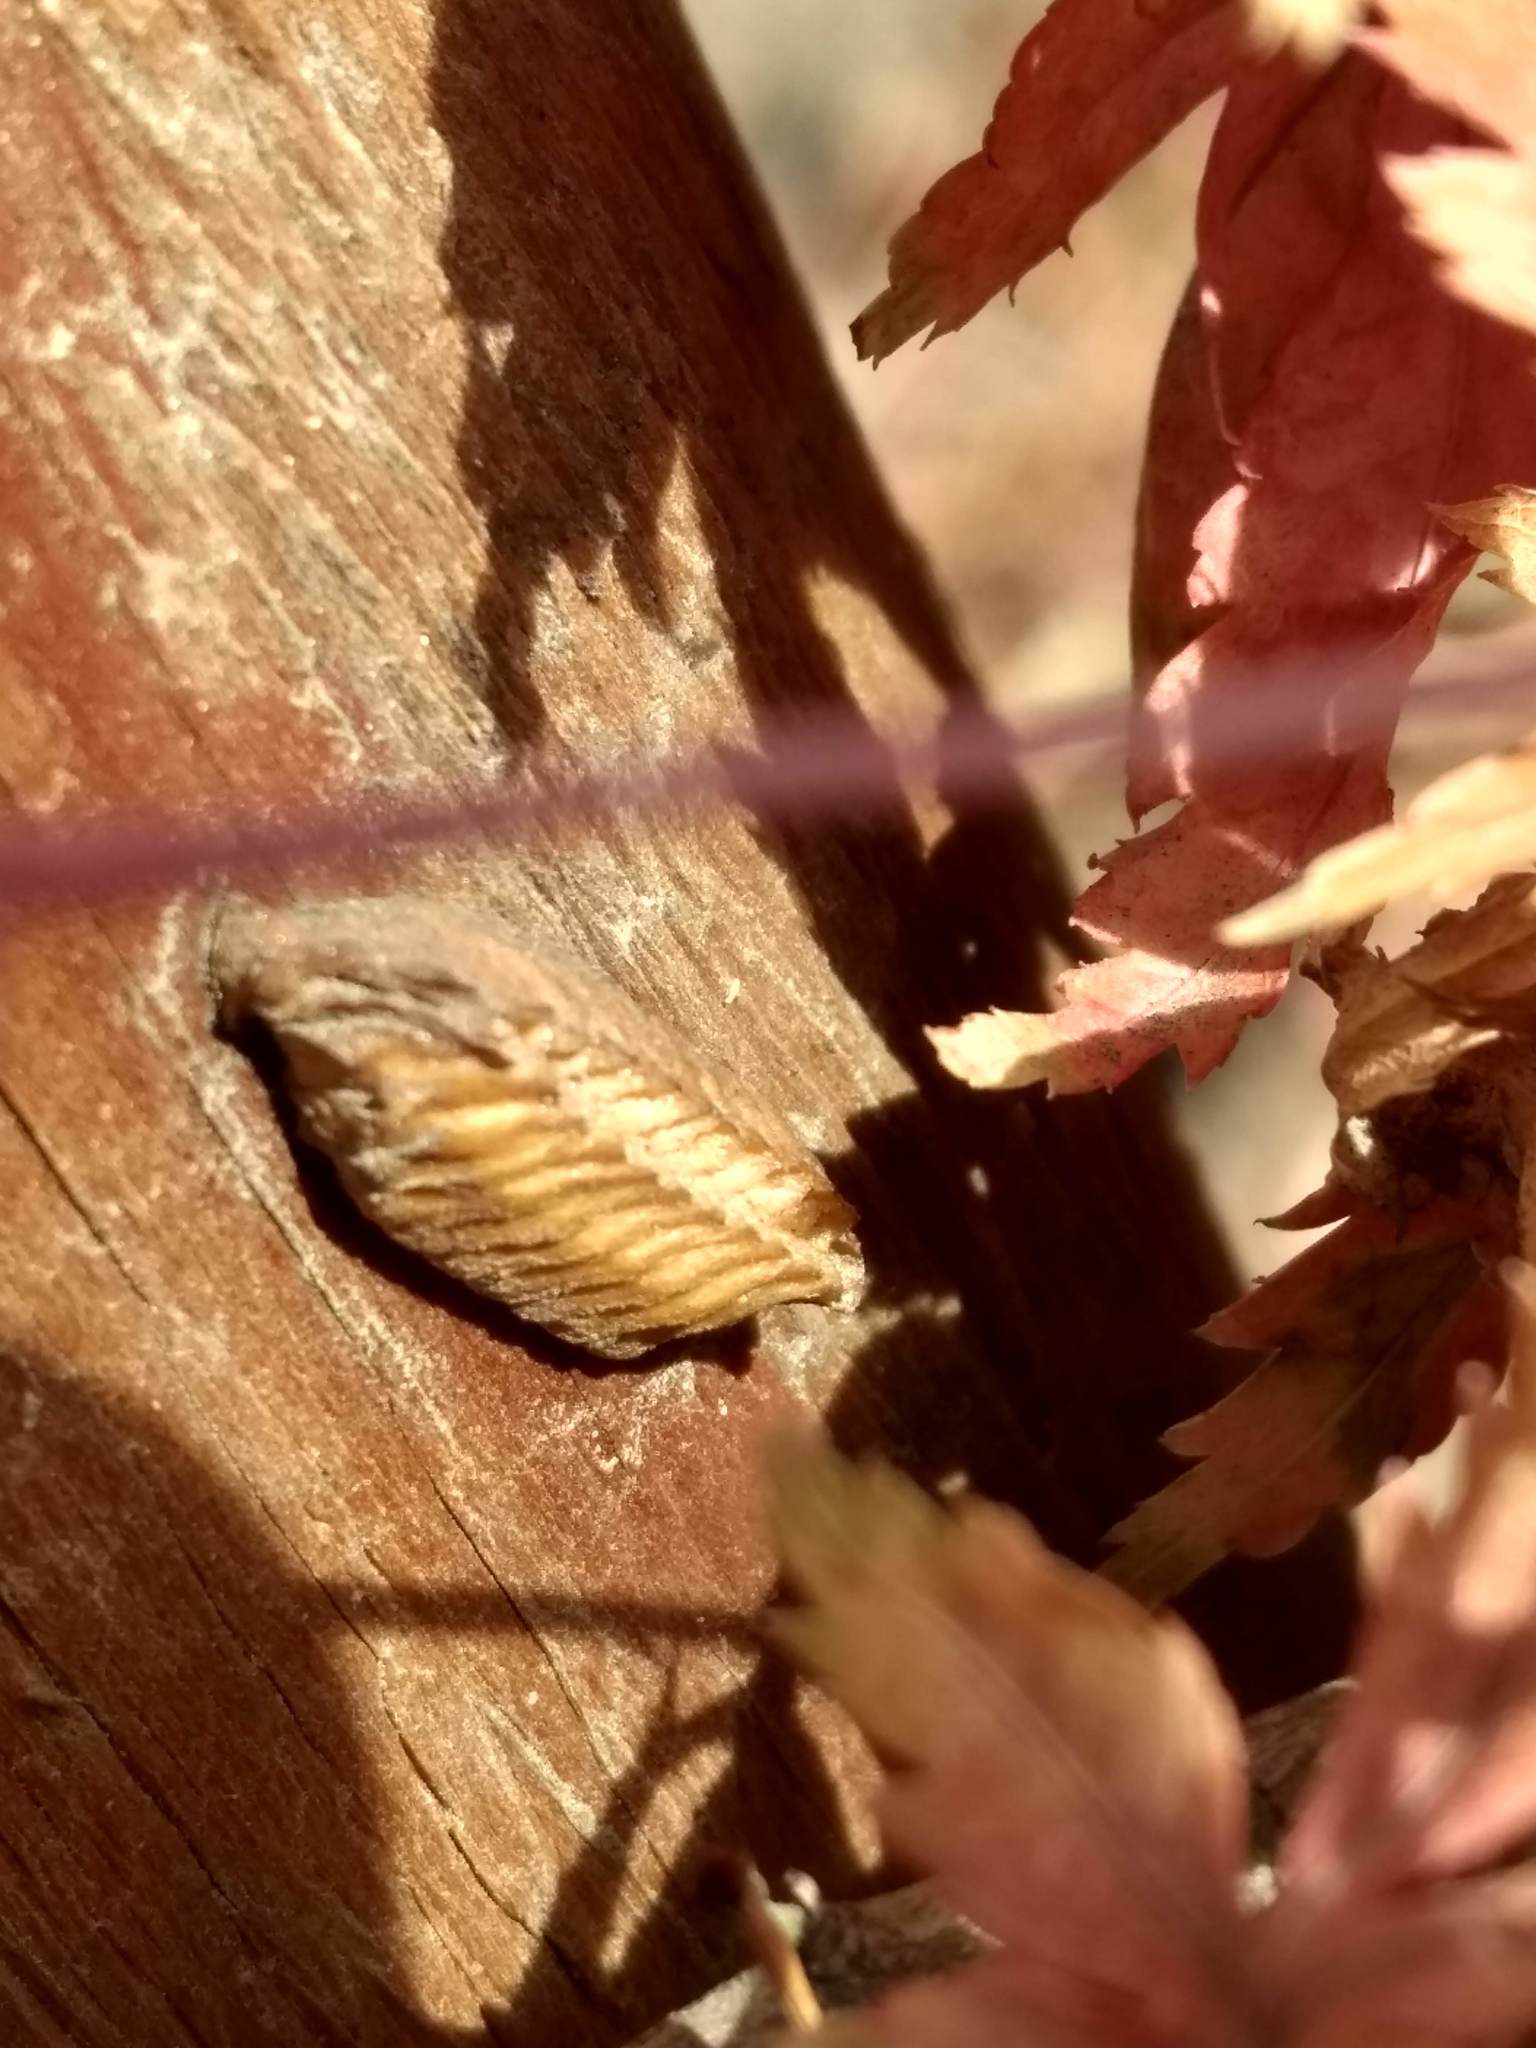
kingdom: Animalia
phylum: Arthropoda
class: Insecta
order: Mantodea
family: Eremiaphilidae
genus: Iris
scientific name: Iris oratoria
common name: Mediterranean mantis
